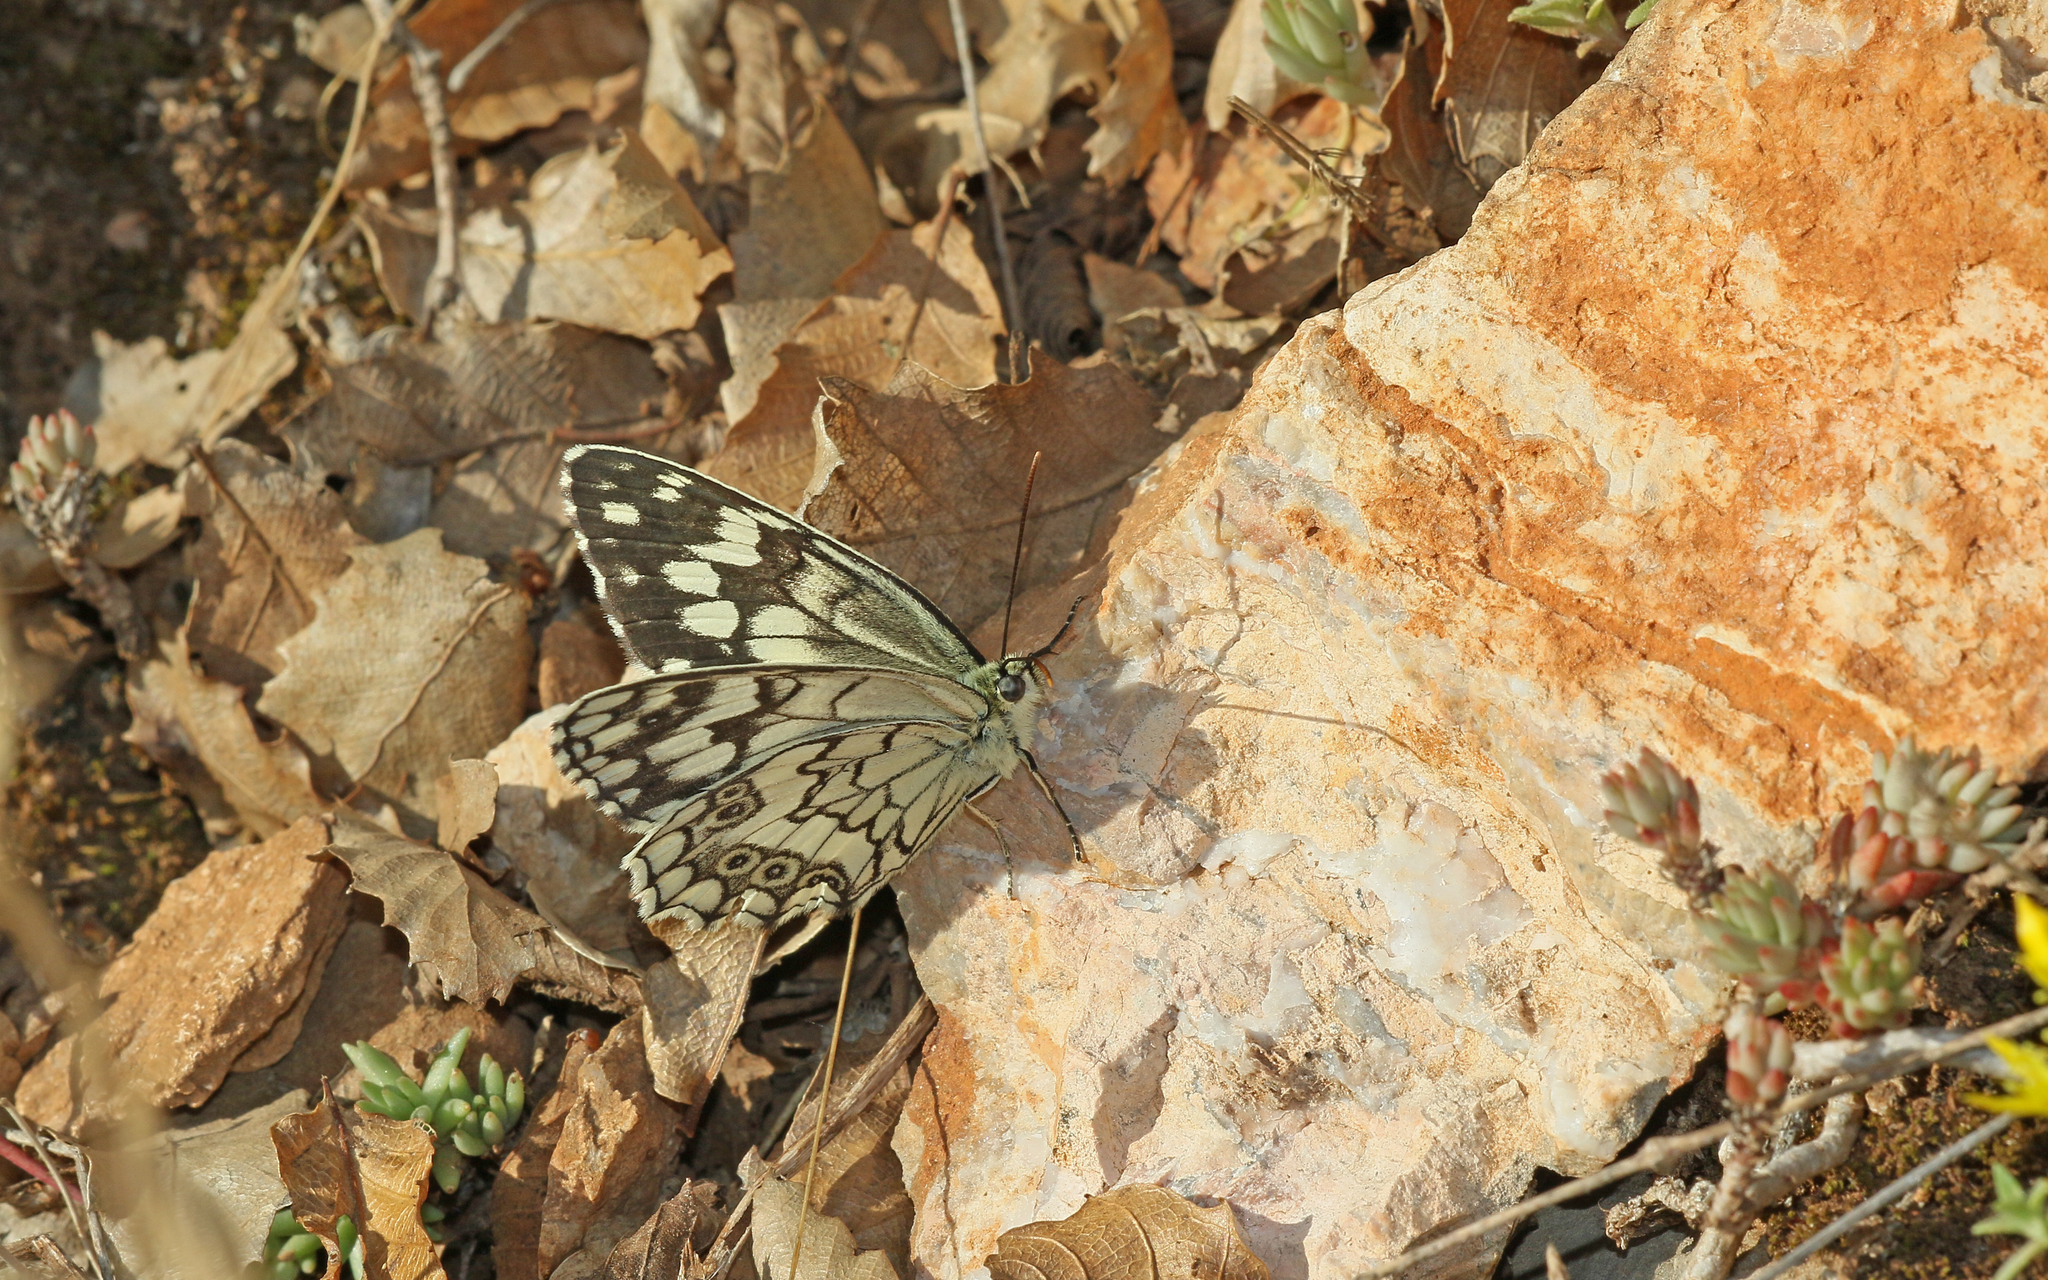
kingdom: Animalia
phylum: Arthropoda
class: Insecta
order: Lepidoptera
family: Nymphalidae
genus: Melanargia
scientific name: Melanargia larissa
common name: Balkan marbled white
